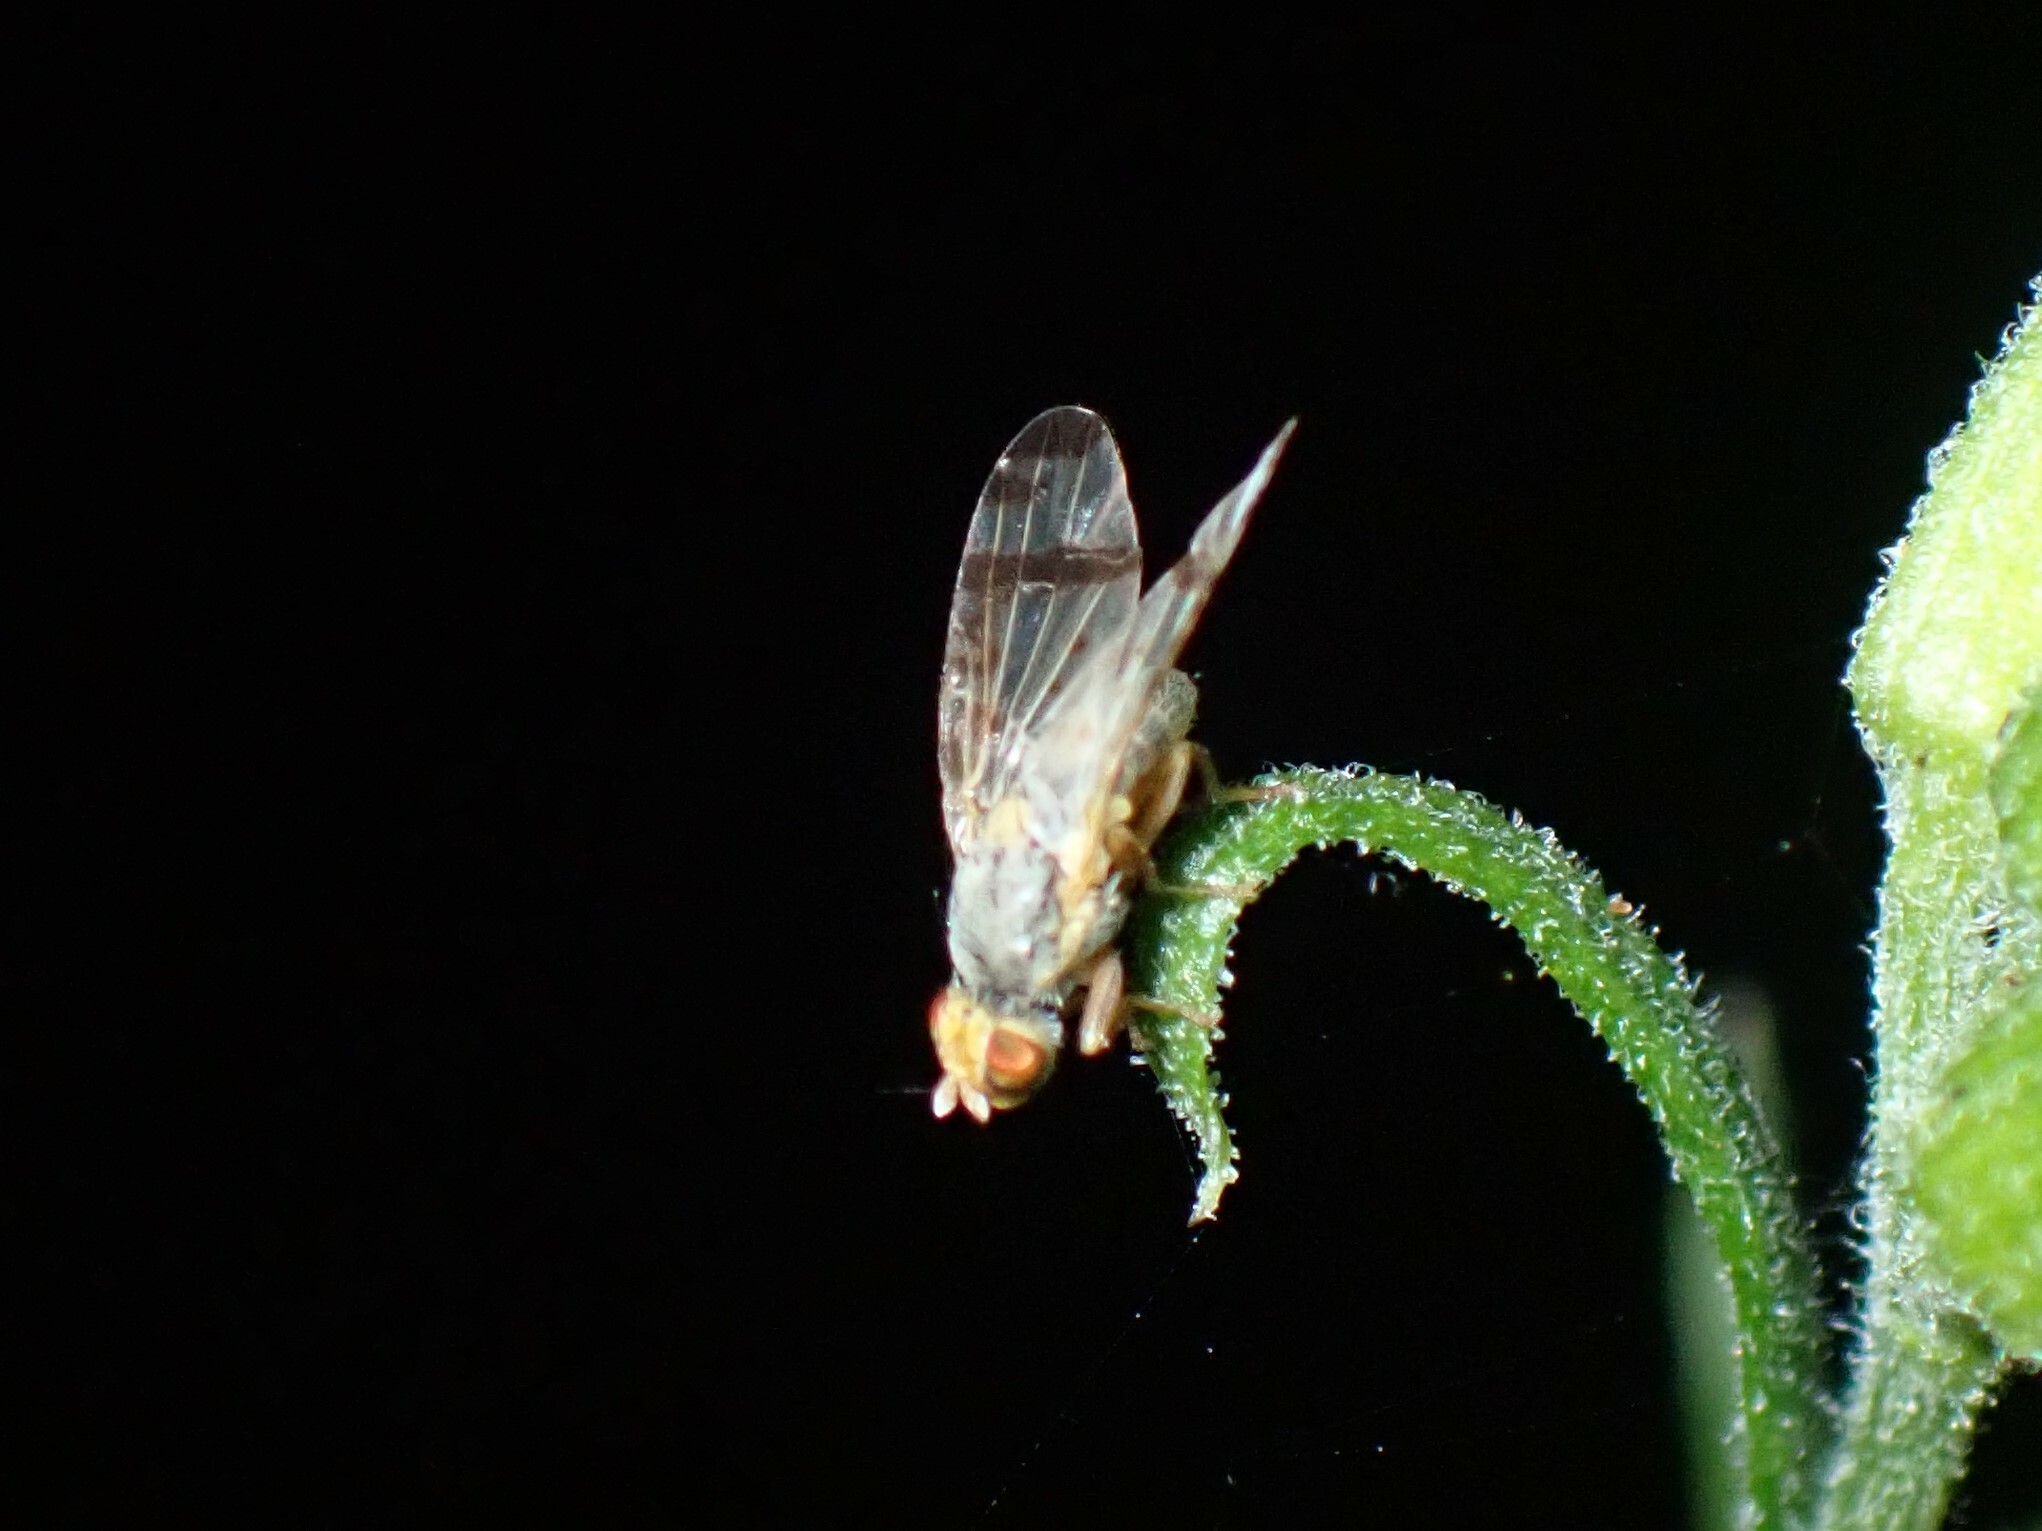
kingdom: Animalia
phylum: Arthropoda
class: Insecta
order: Diptera
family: Tephritidae
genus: Sphenella
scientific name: Sphenella marginata
